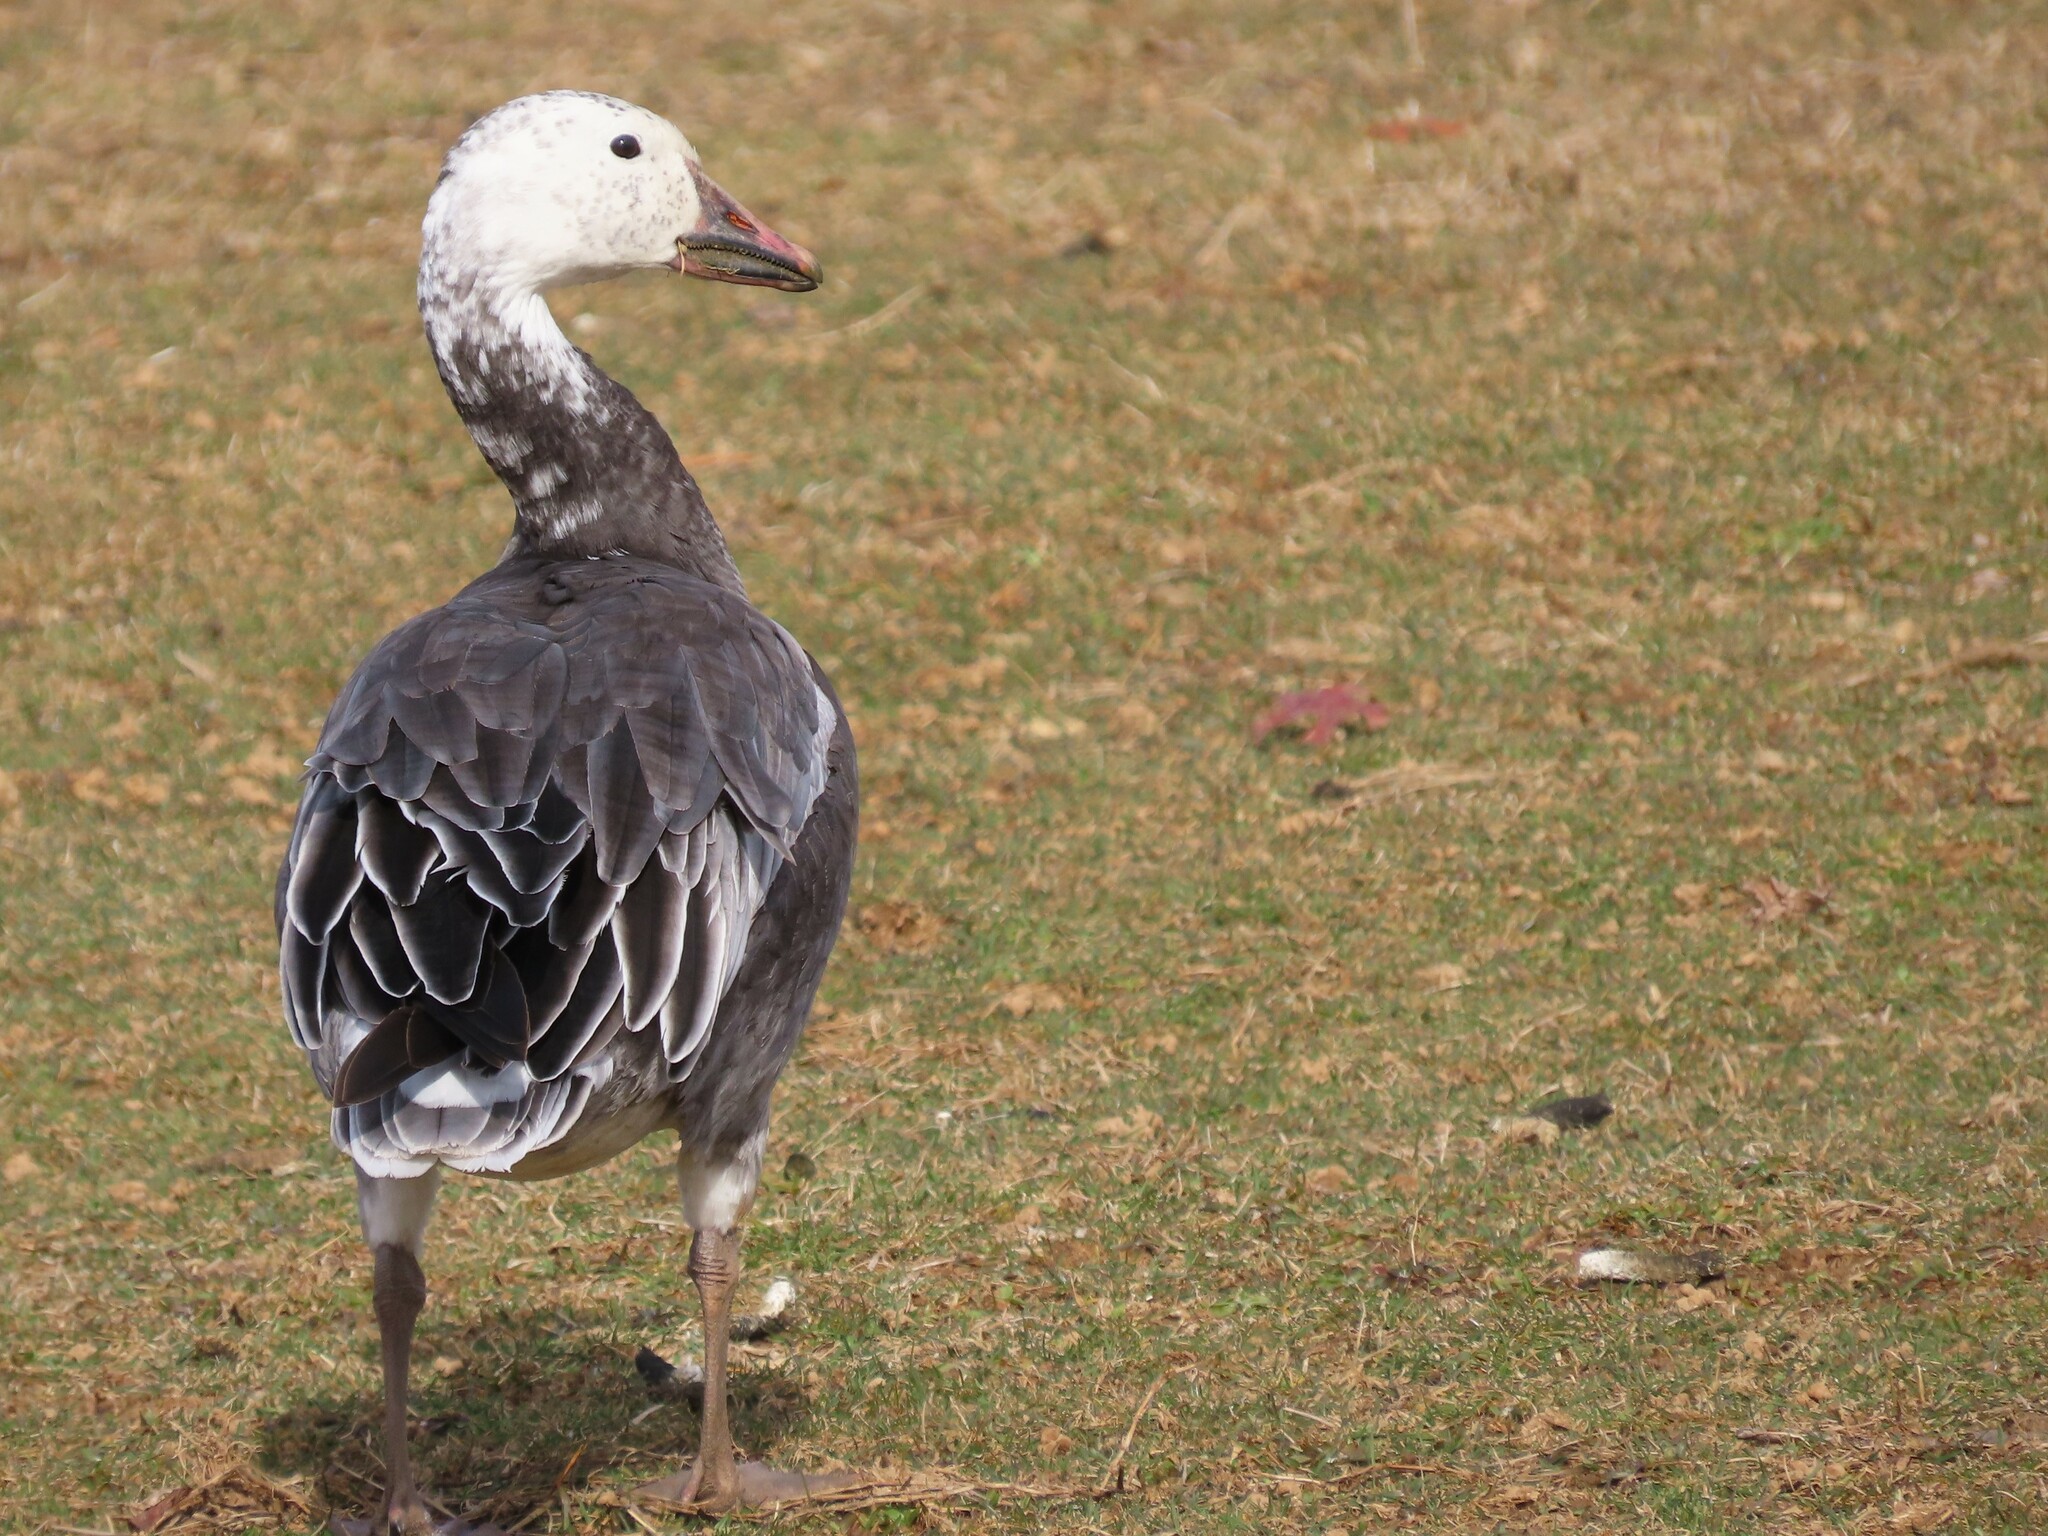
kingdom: Animalia
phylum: Chordata
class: Aves
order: Anseriformes
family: Anatidae
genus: Anser
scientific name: Anser caerulescens
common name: Snow goose
